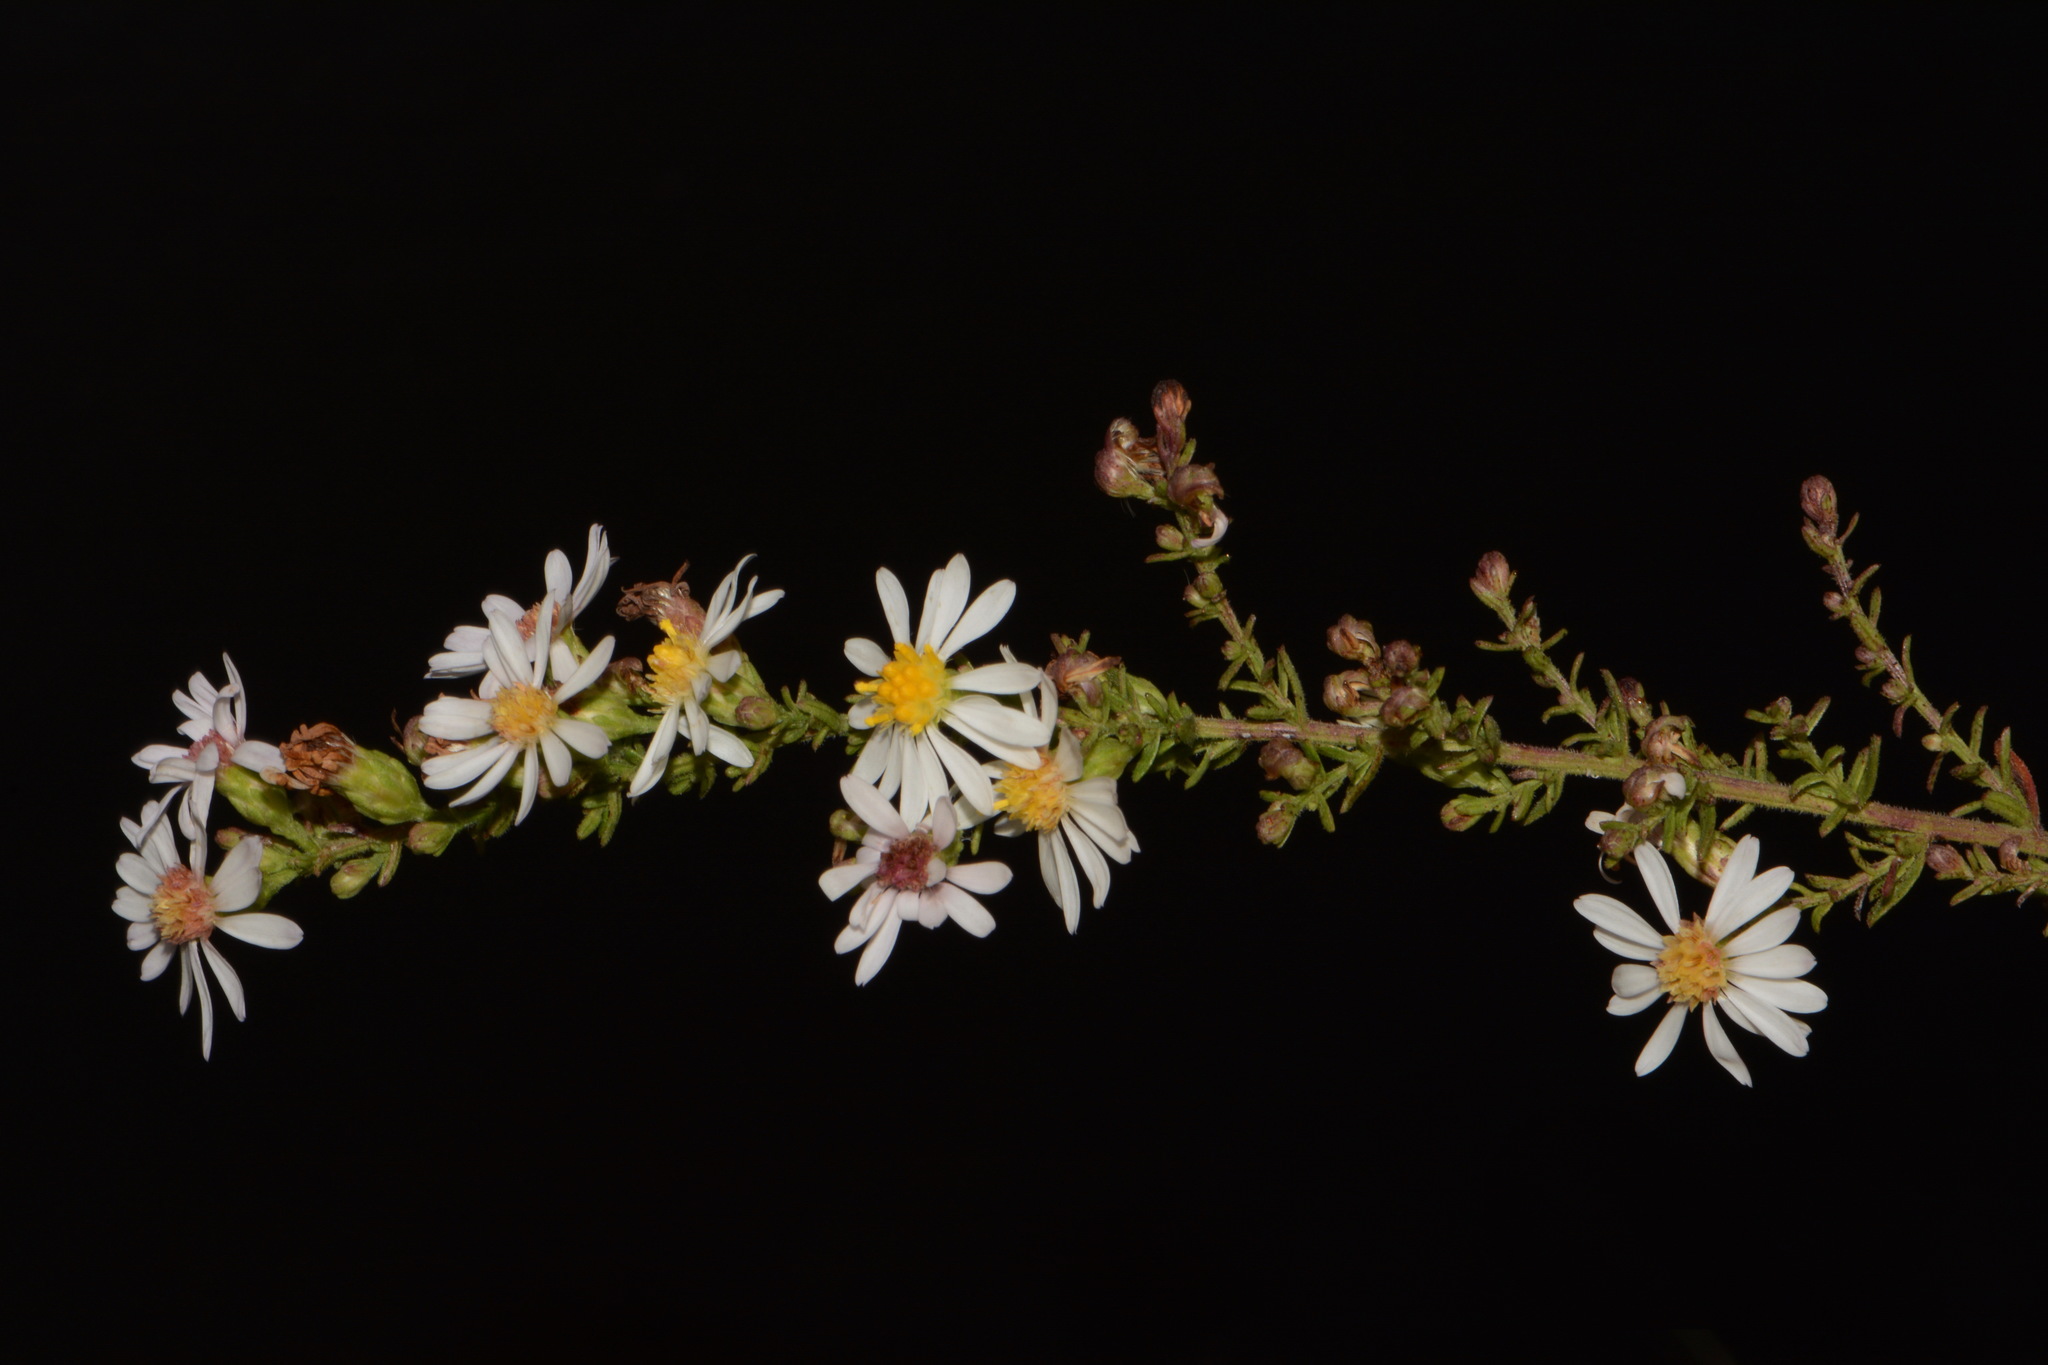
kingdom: Plantae
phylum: Tracheophyta
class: Magnoliopsida
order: Asterales
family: Asteraceae
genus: Symphyotrichum
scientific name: Symphyotrichum estesii
